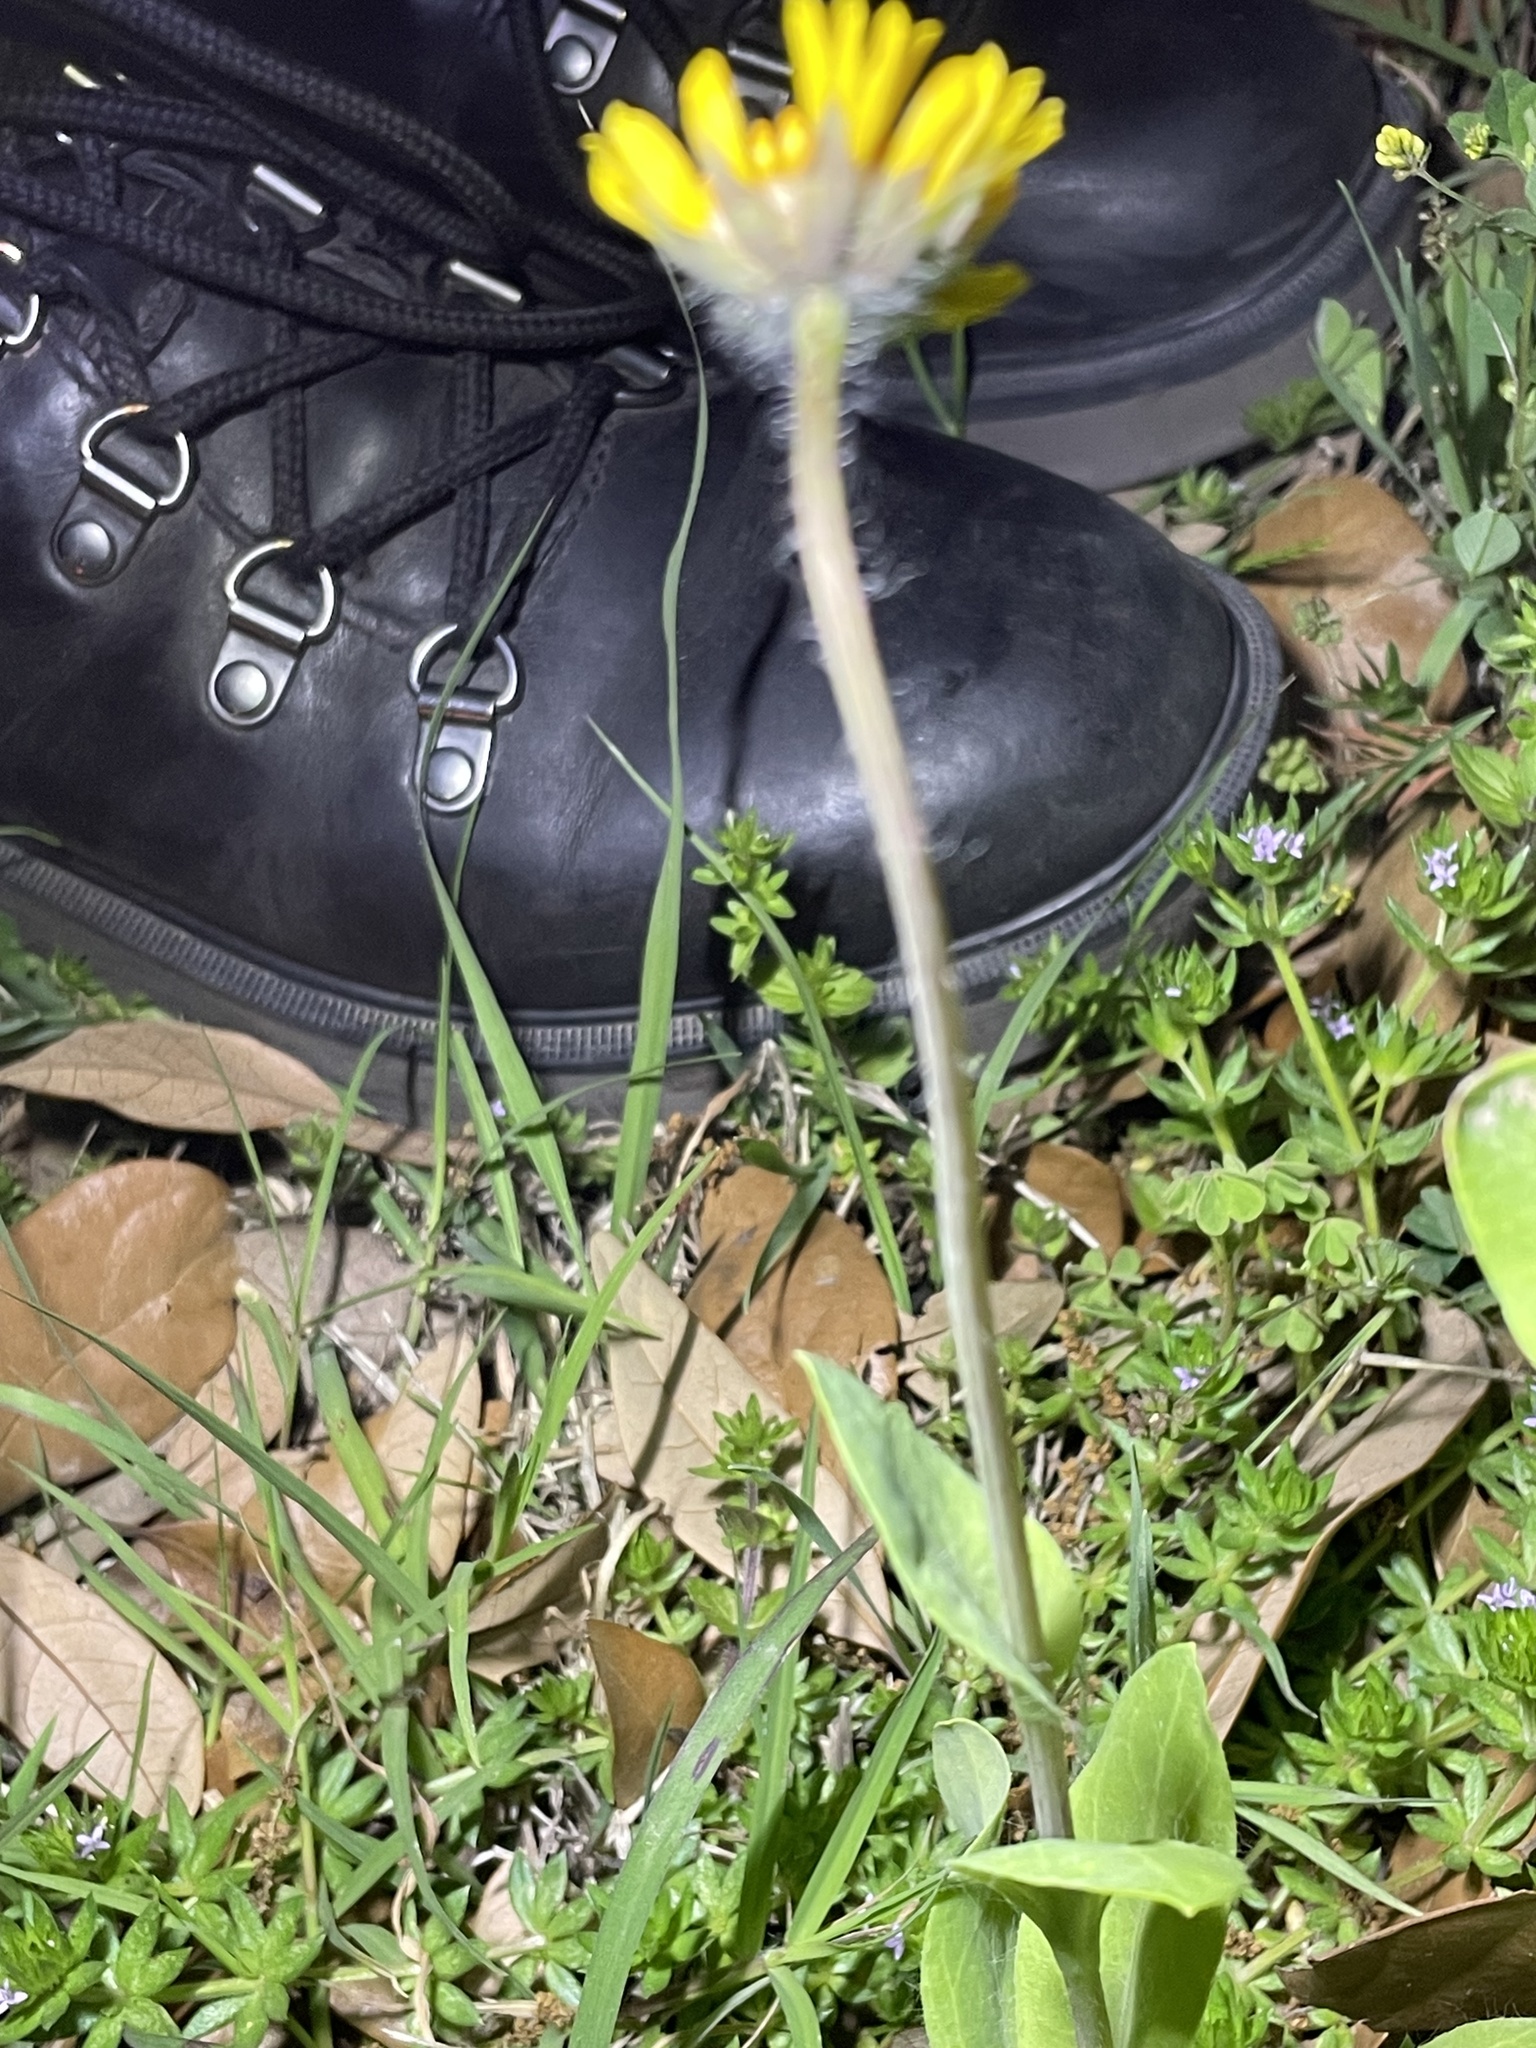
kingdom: Plantae
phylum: Tracheophyta
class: Magnoliopsida
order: Asterales
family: Asteraceae
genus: Amblyolepis
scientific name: Amblyolepis setigera
